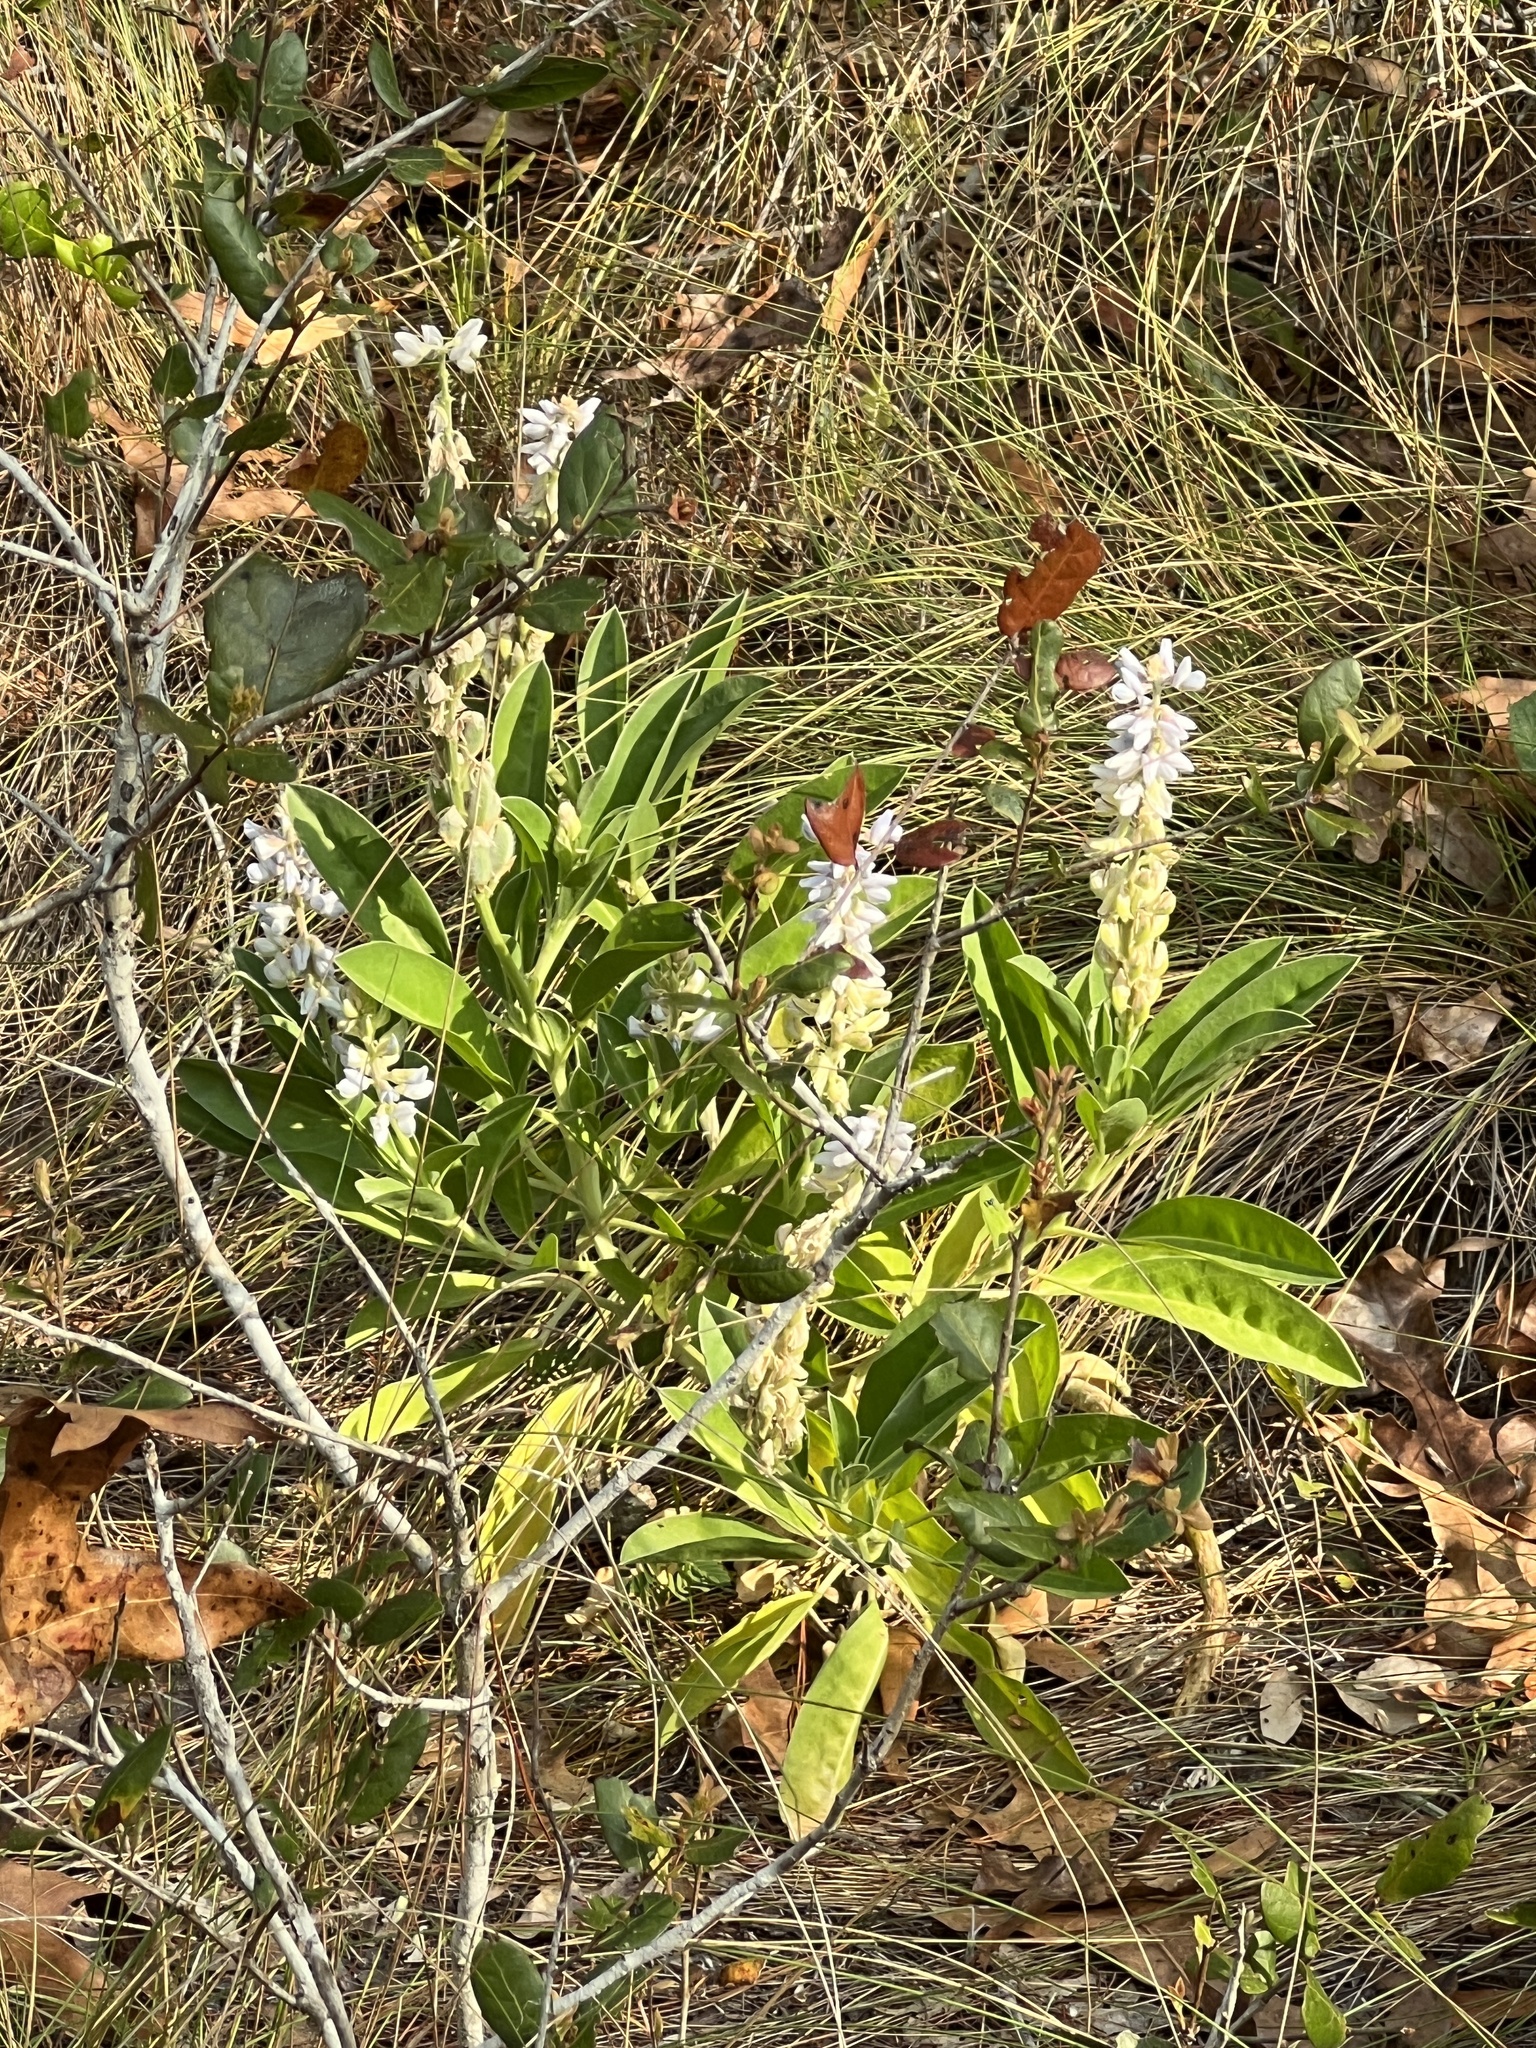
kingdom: Plantae
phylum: Tracheophyta
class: Magnoliopsida
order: Fabales
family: Fabaceae
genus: Lupinus
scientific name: Lupinus
